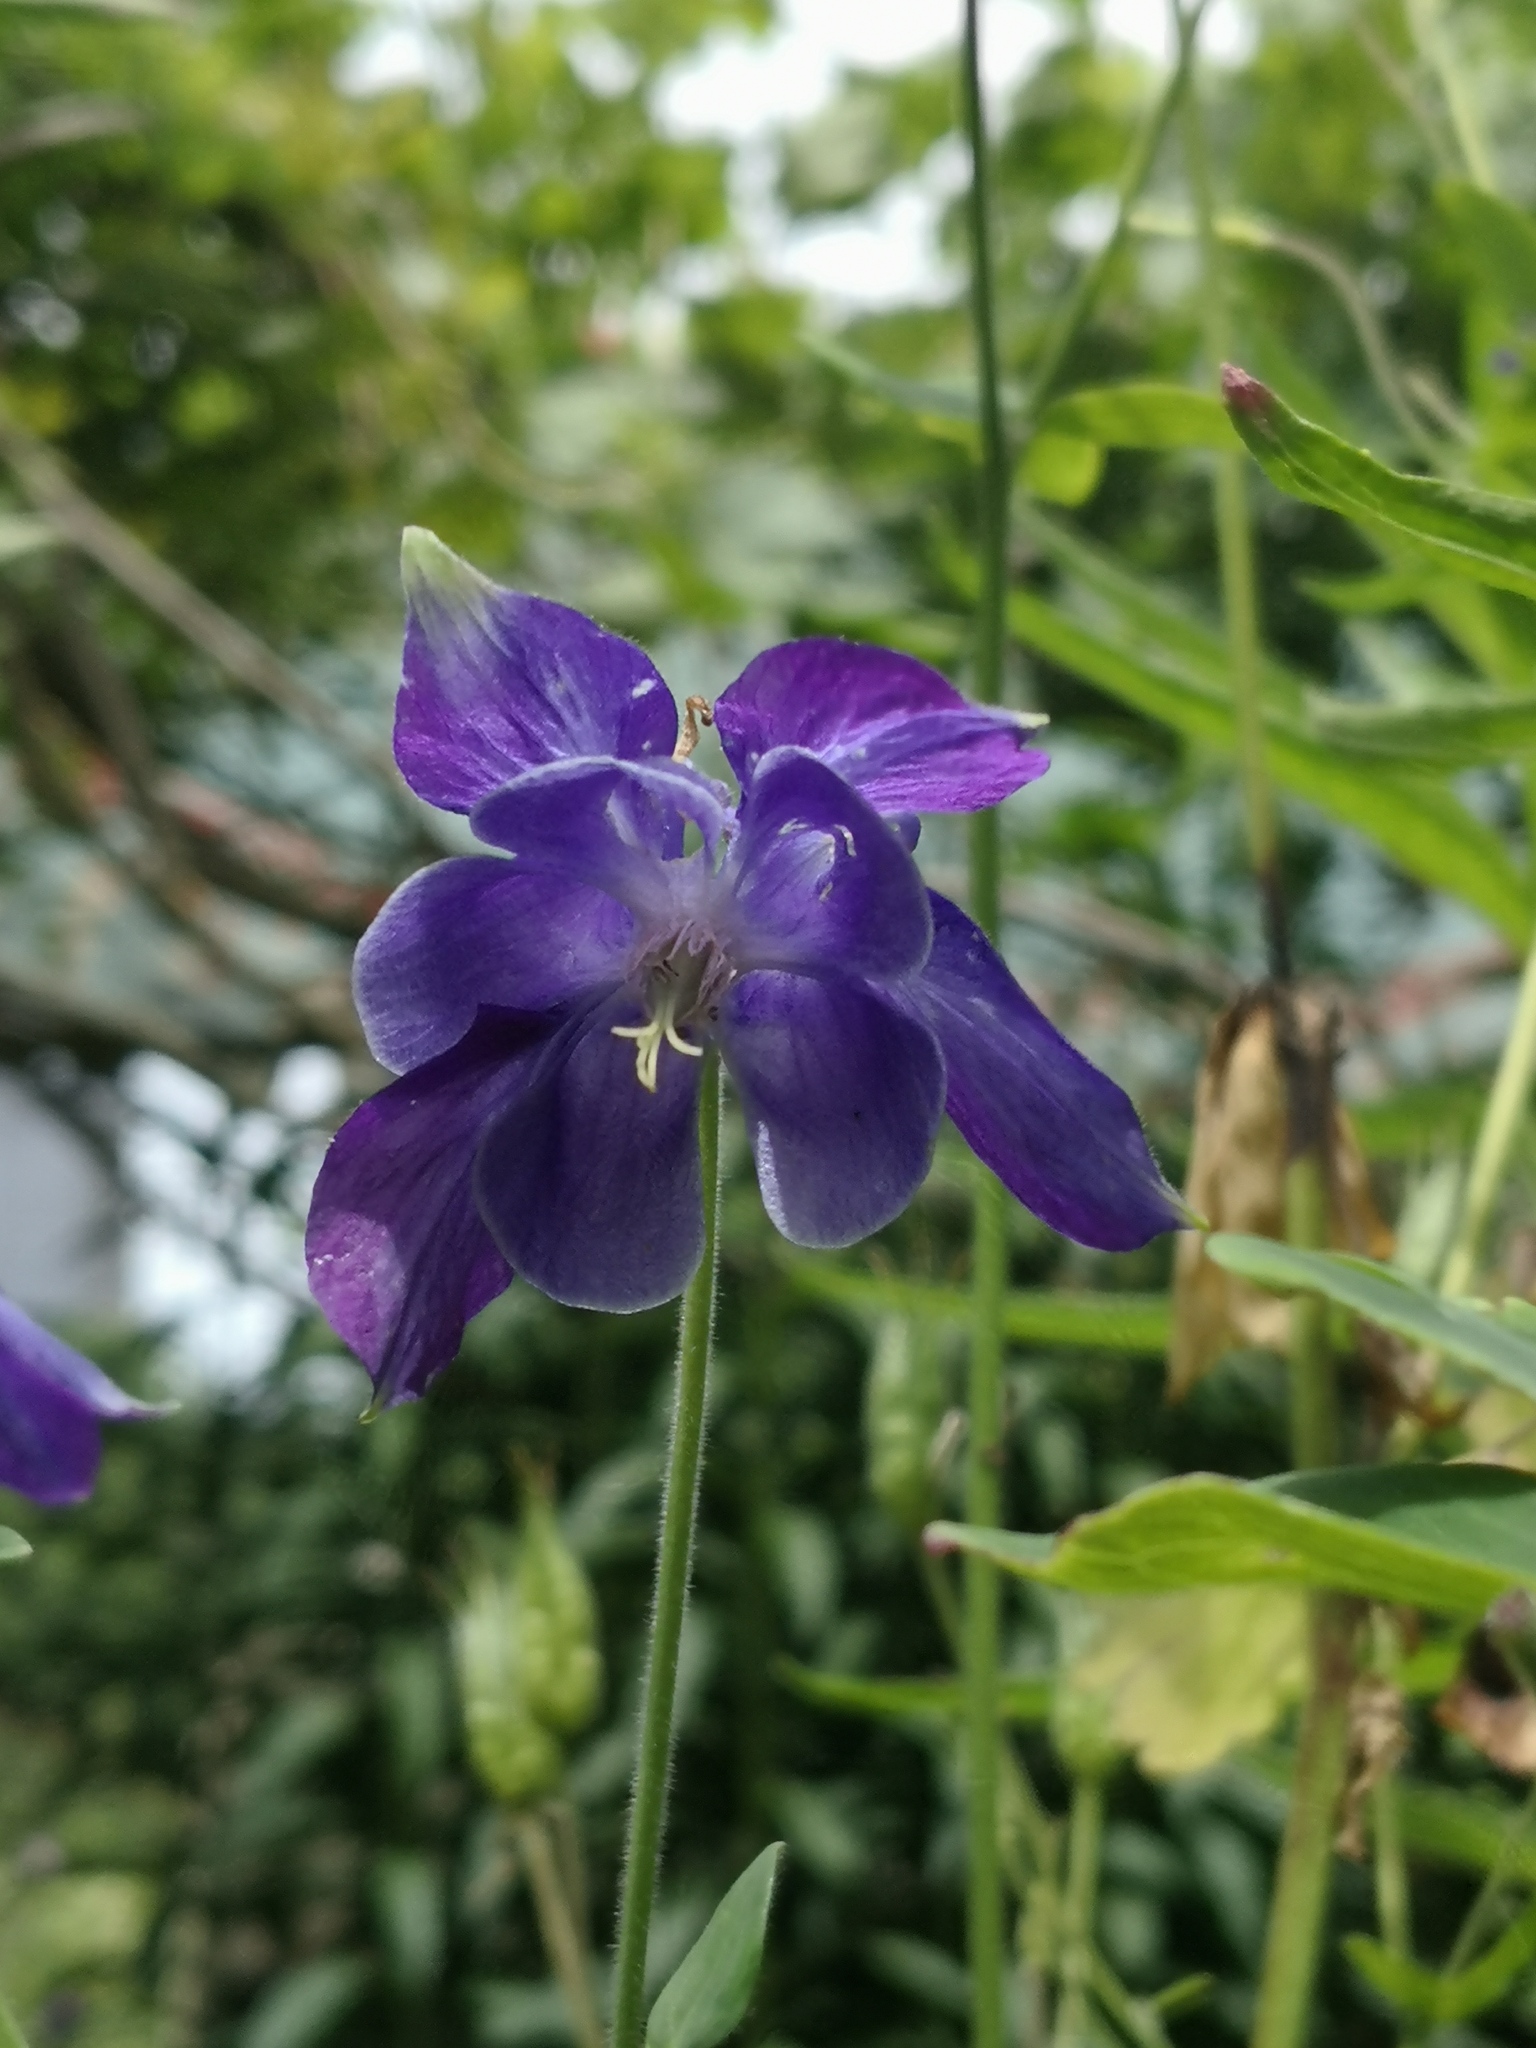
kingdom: Plantae
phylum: Tracheophyta
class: Magnoliopsida
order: Ranunculales
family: Ranunculaceae
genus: Aquilegia
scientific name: Aquilegia vulgaris
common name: Columbine
